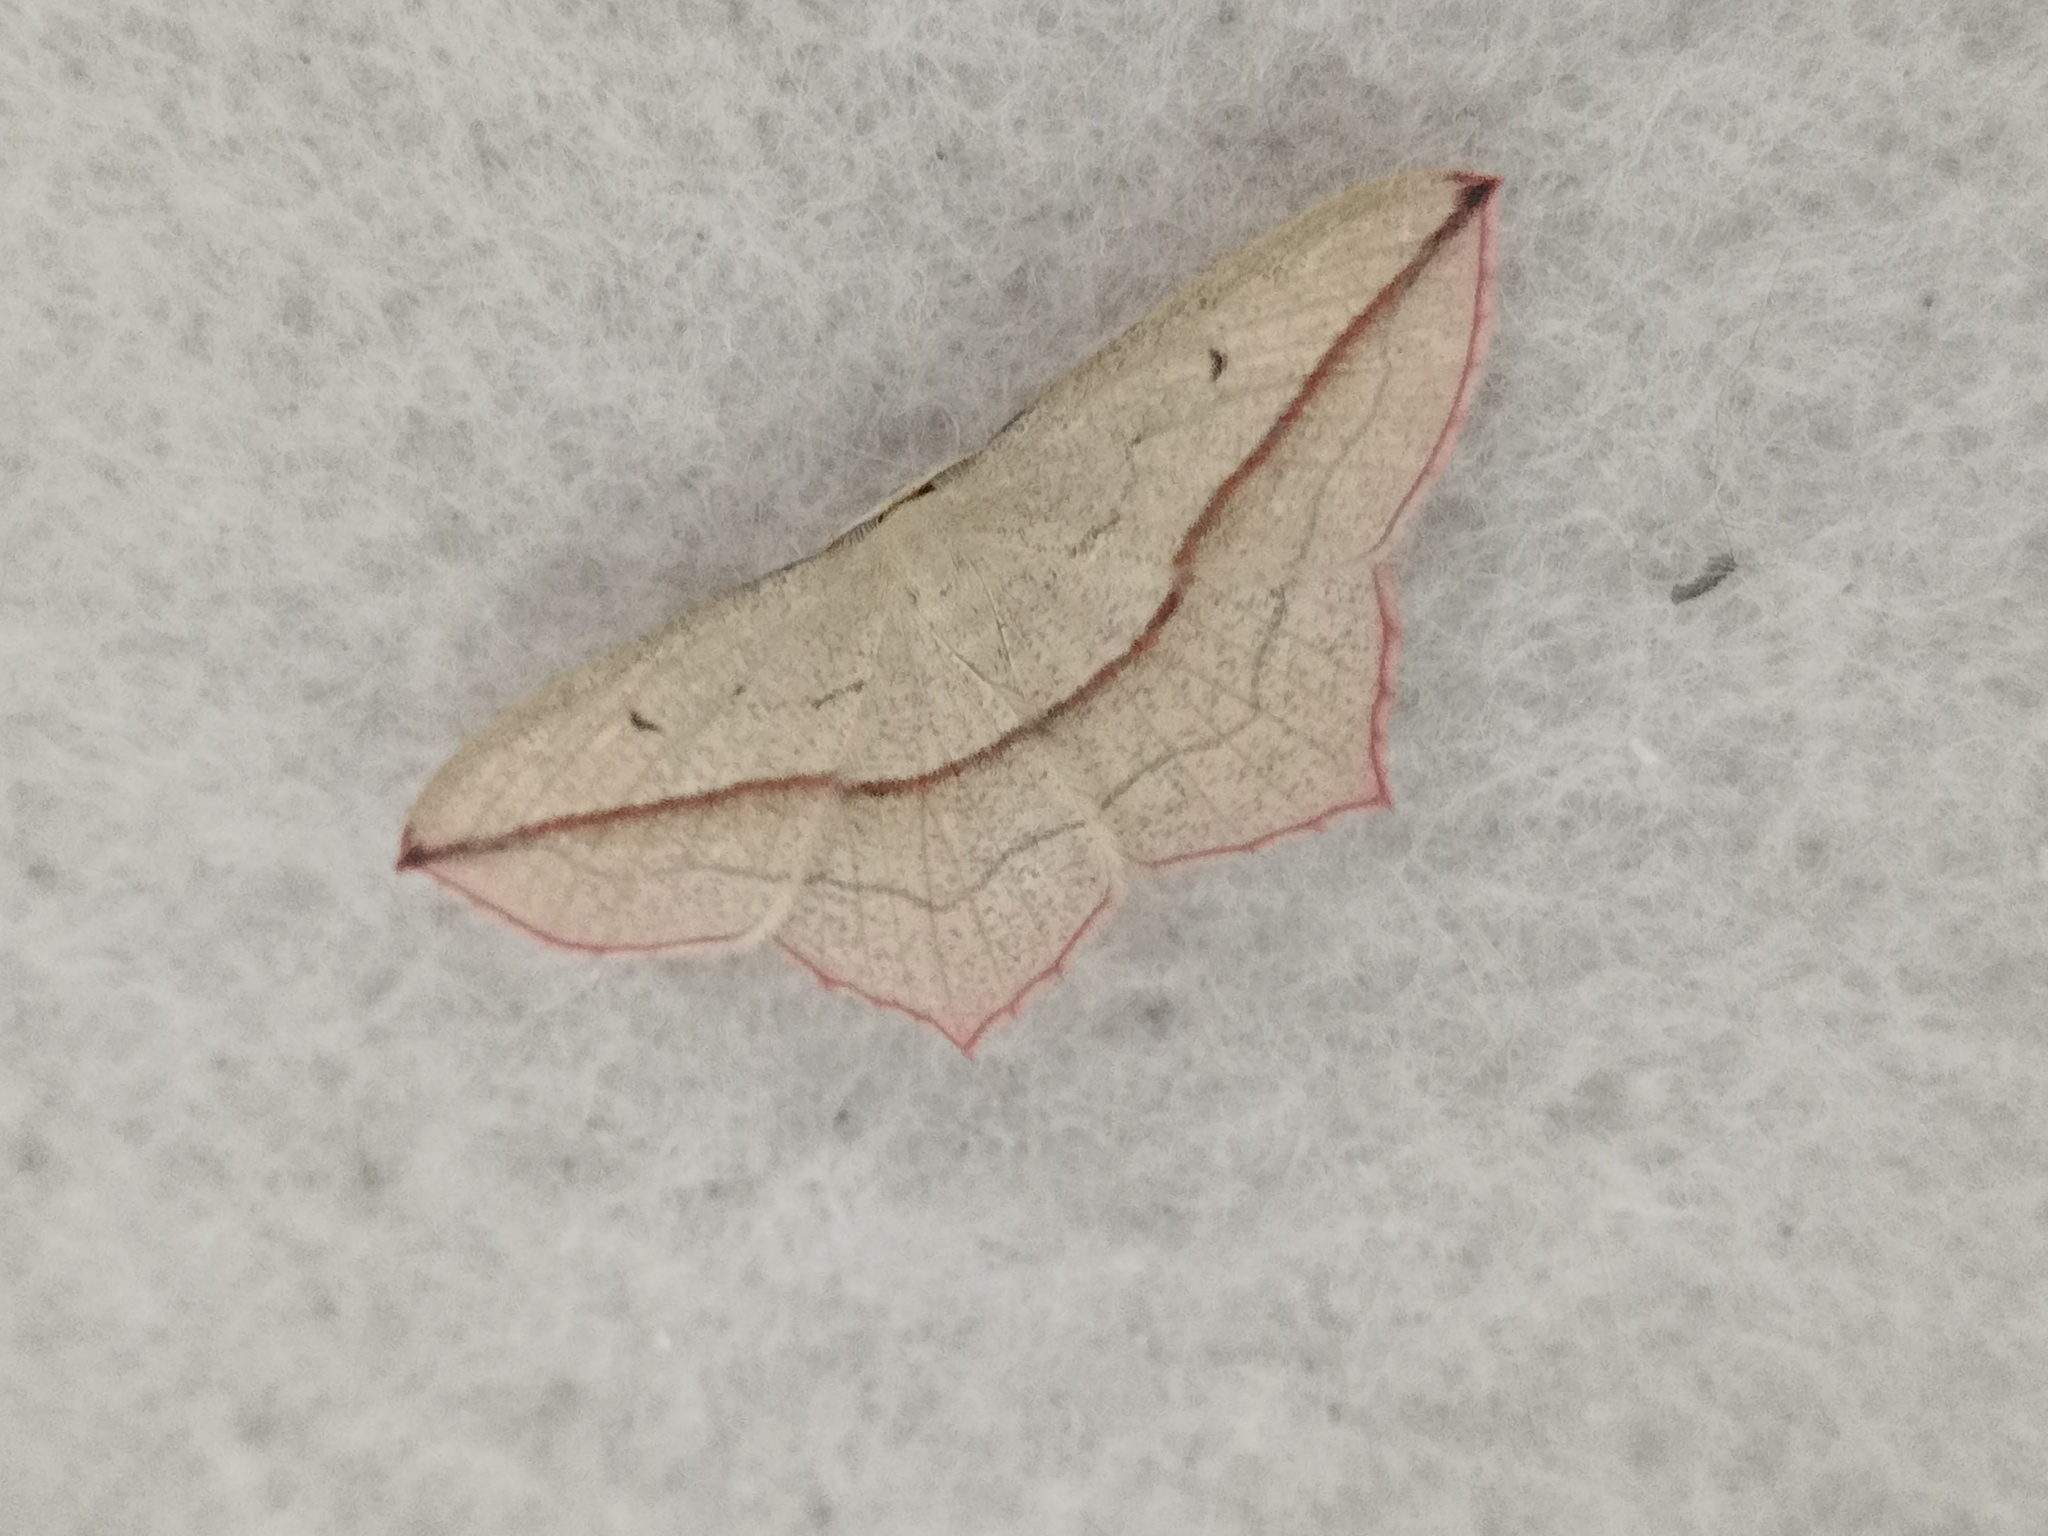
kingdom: Animalia
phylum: Arthropoda
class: Insecta
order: Lepidoptera
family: Geometridae
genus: Timandra
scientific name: Timandra comae
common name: Blood-vein
